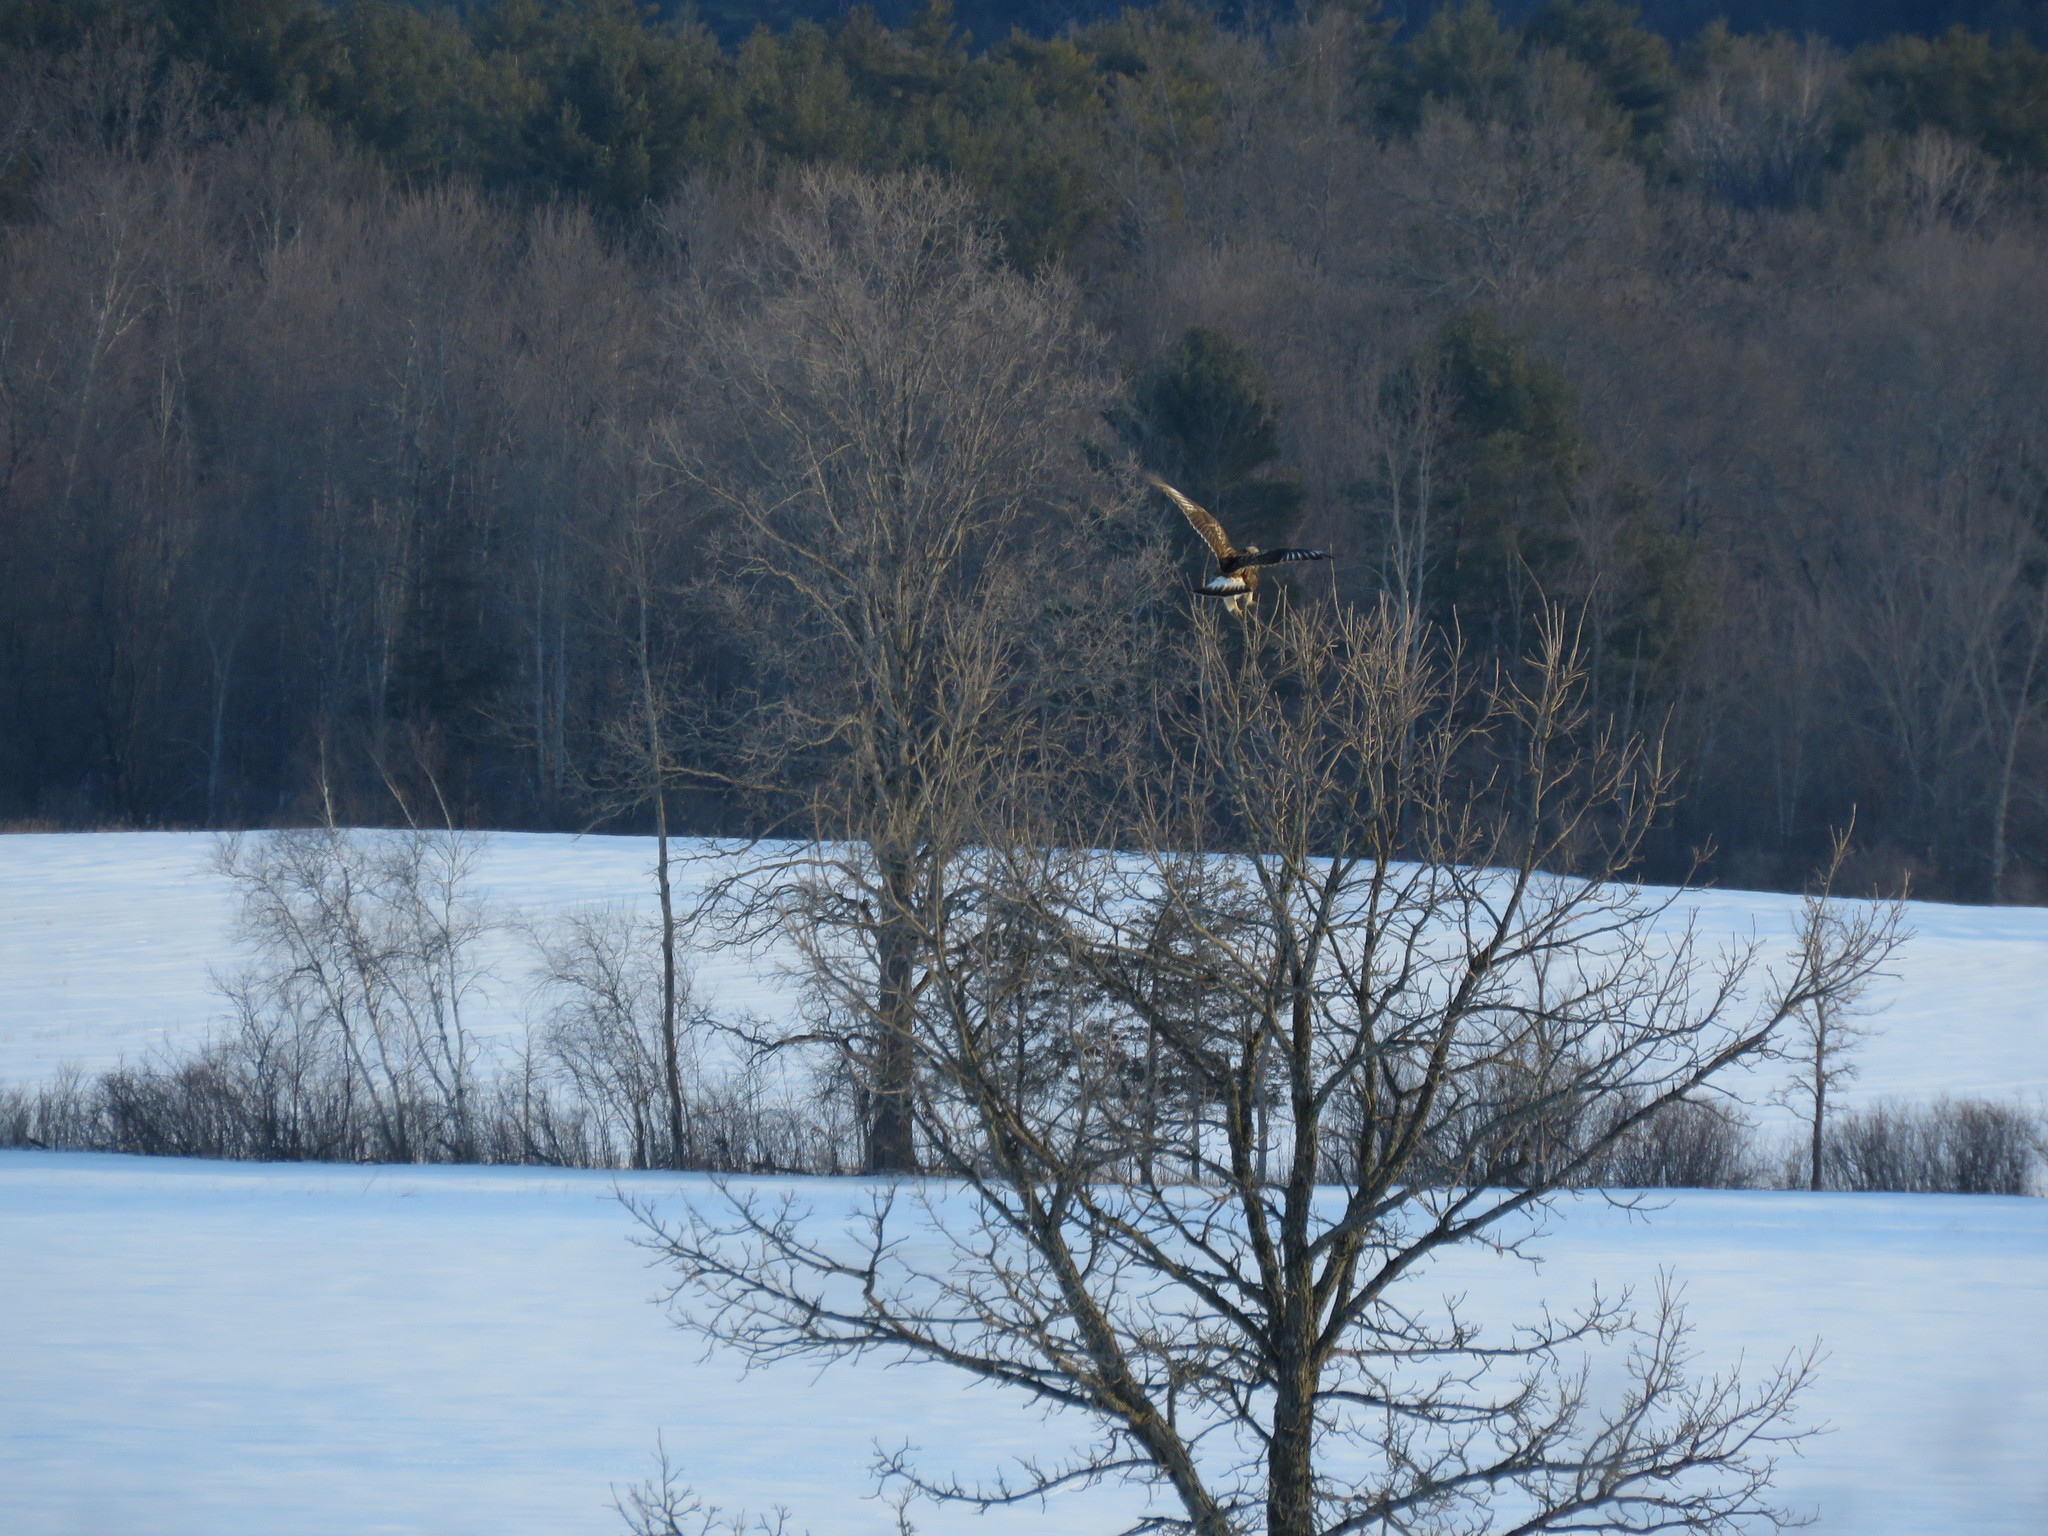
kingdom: Animalia
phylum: Chordata
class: Aves
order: Accipitriformes
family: Accipitridae
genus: Buteo
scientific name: Buteo lagopus
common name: Rough-legged buzzard
